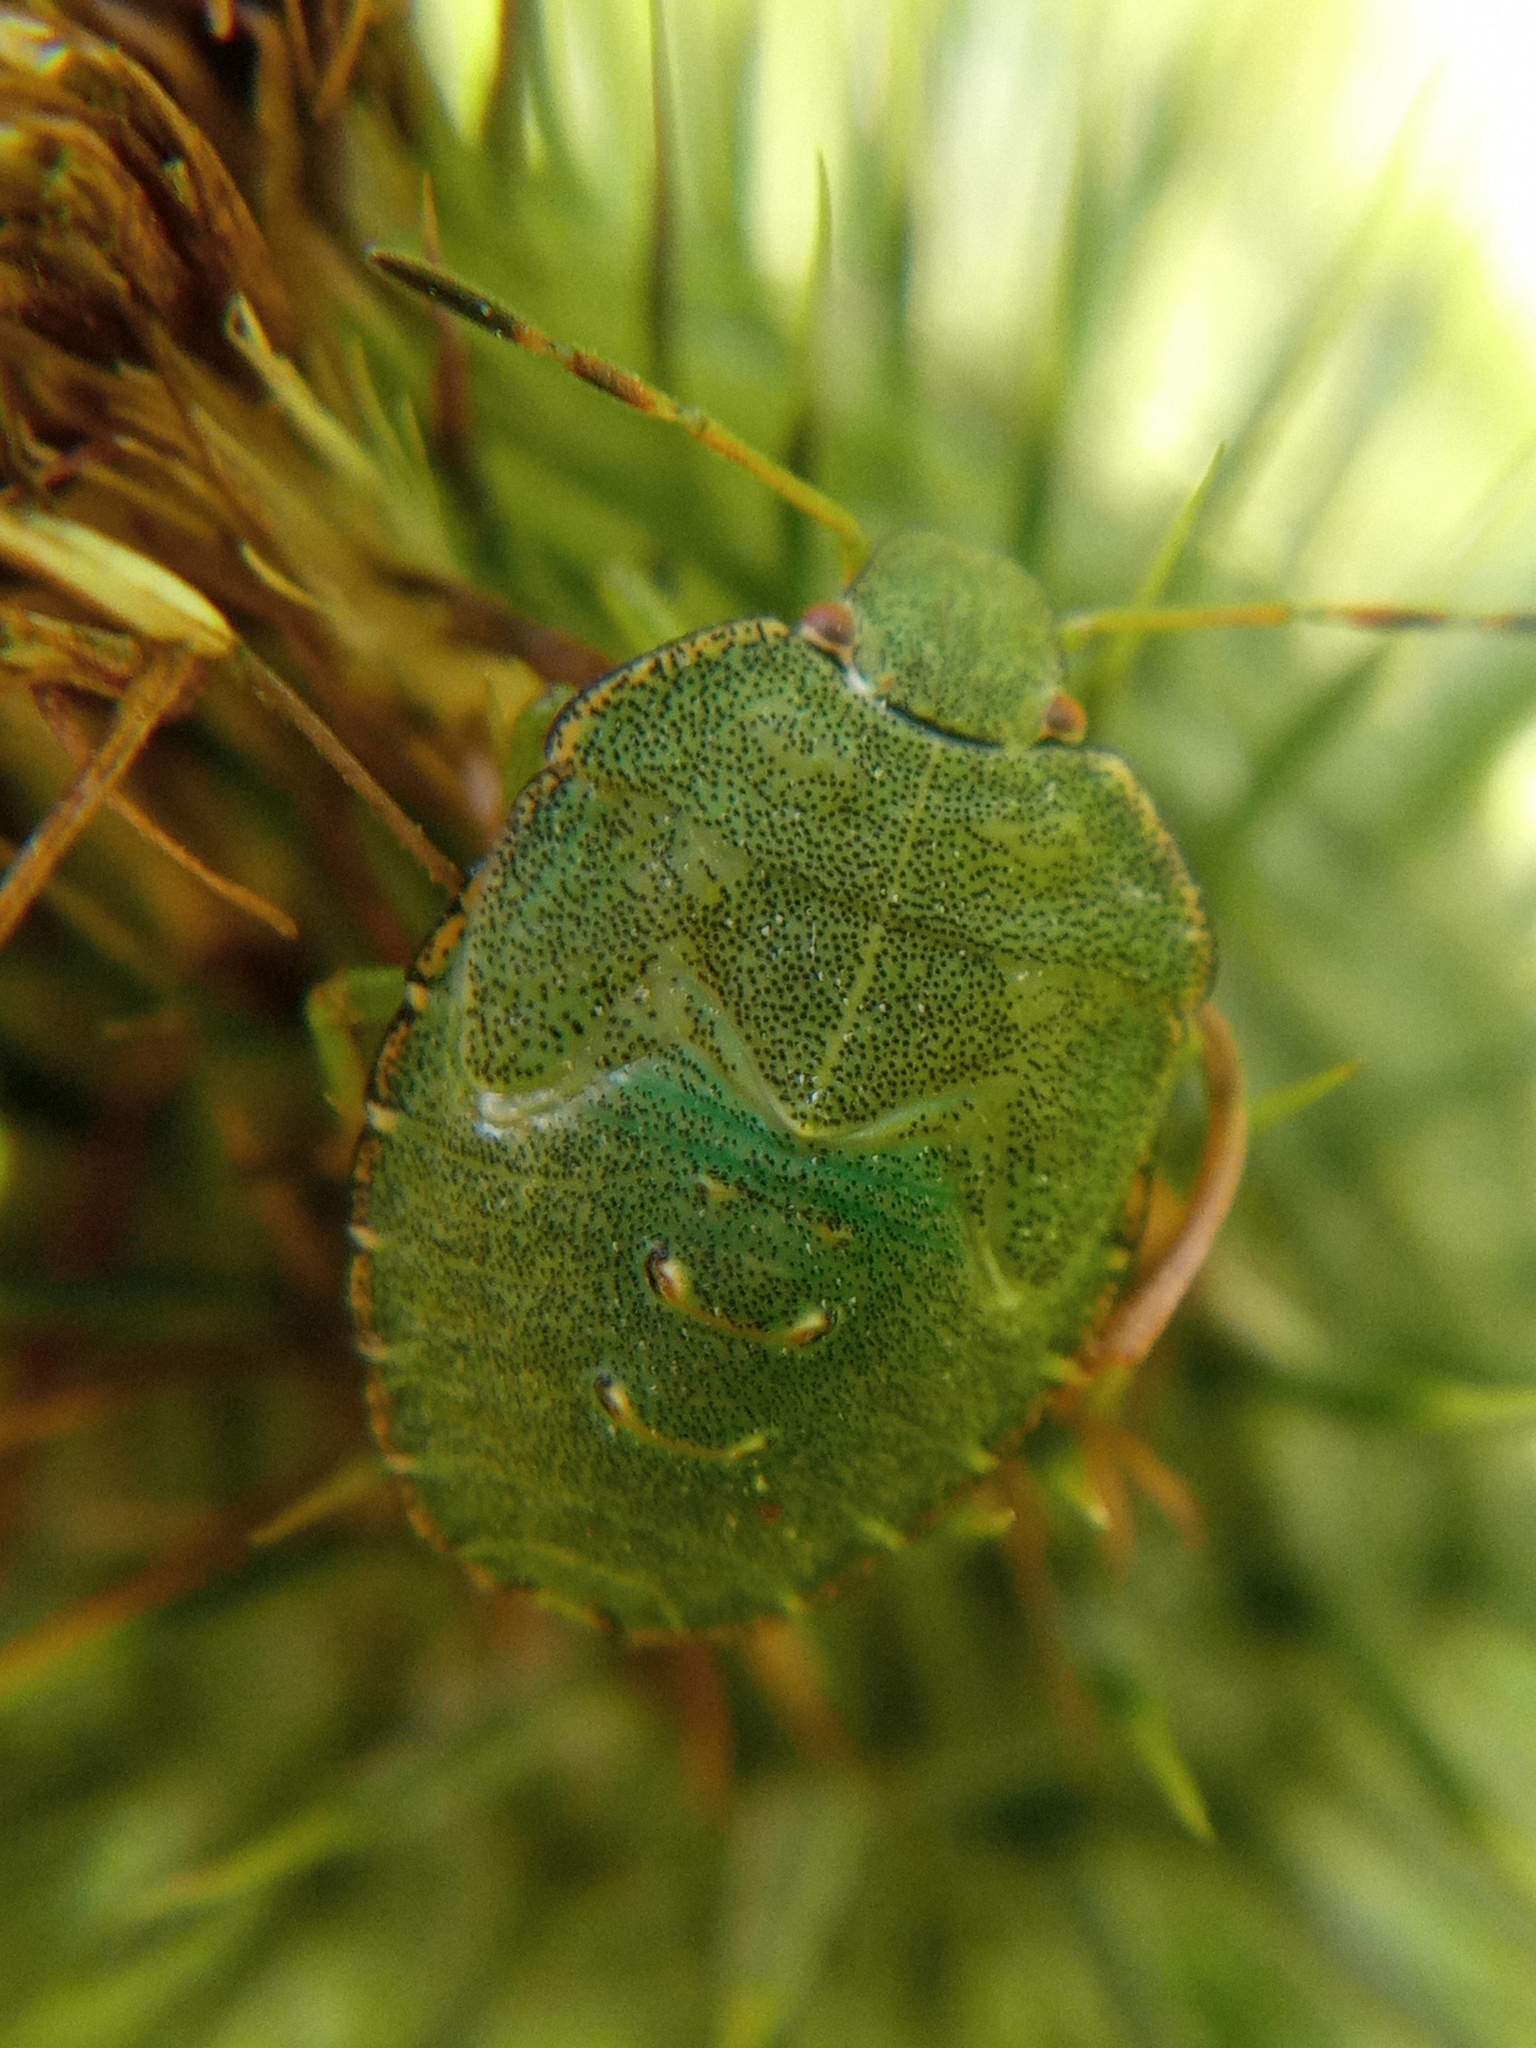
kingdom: Animalia
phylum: Arthropoda
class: Insecta
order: Hemiptera
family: Pentatomidae
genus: Palomena
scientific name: Palomena prasina
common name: Green shieldbug
